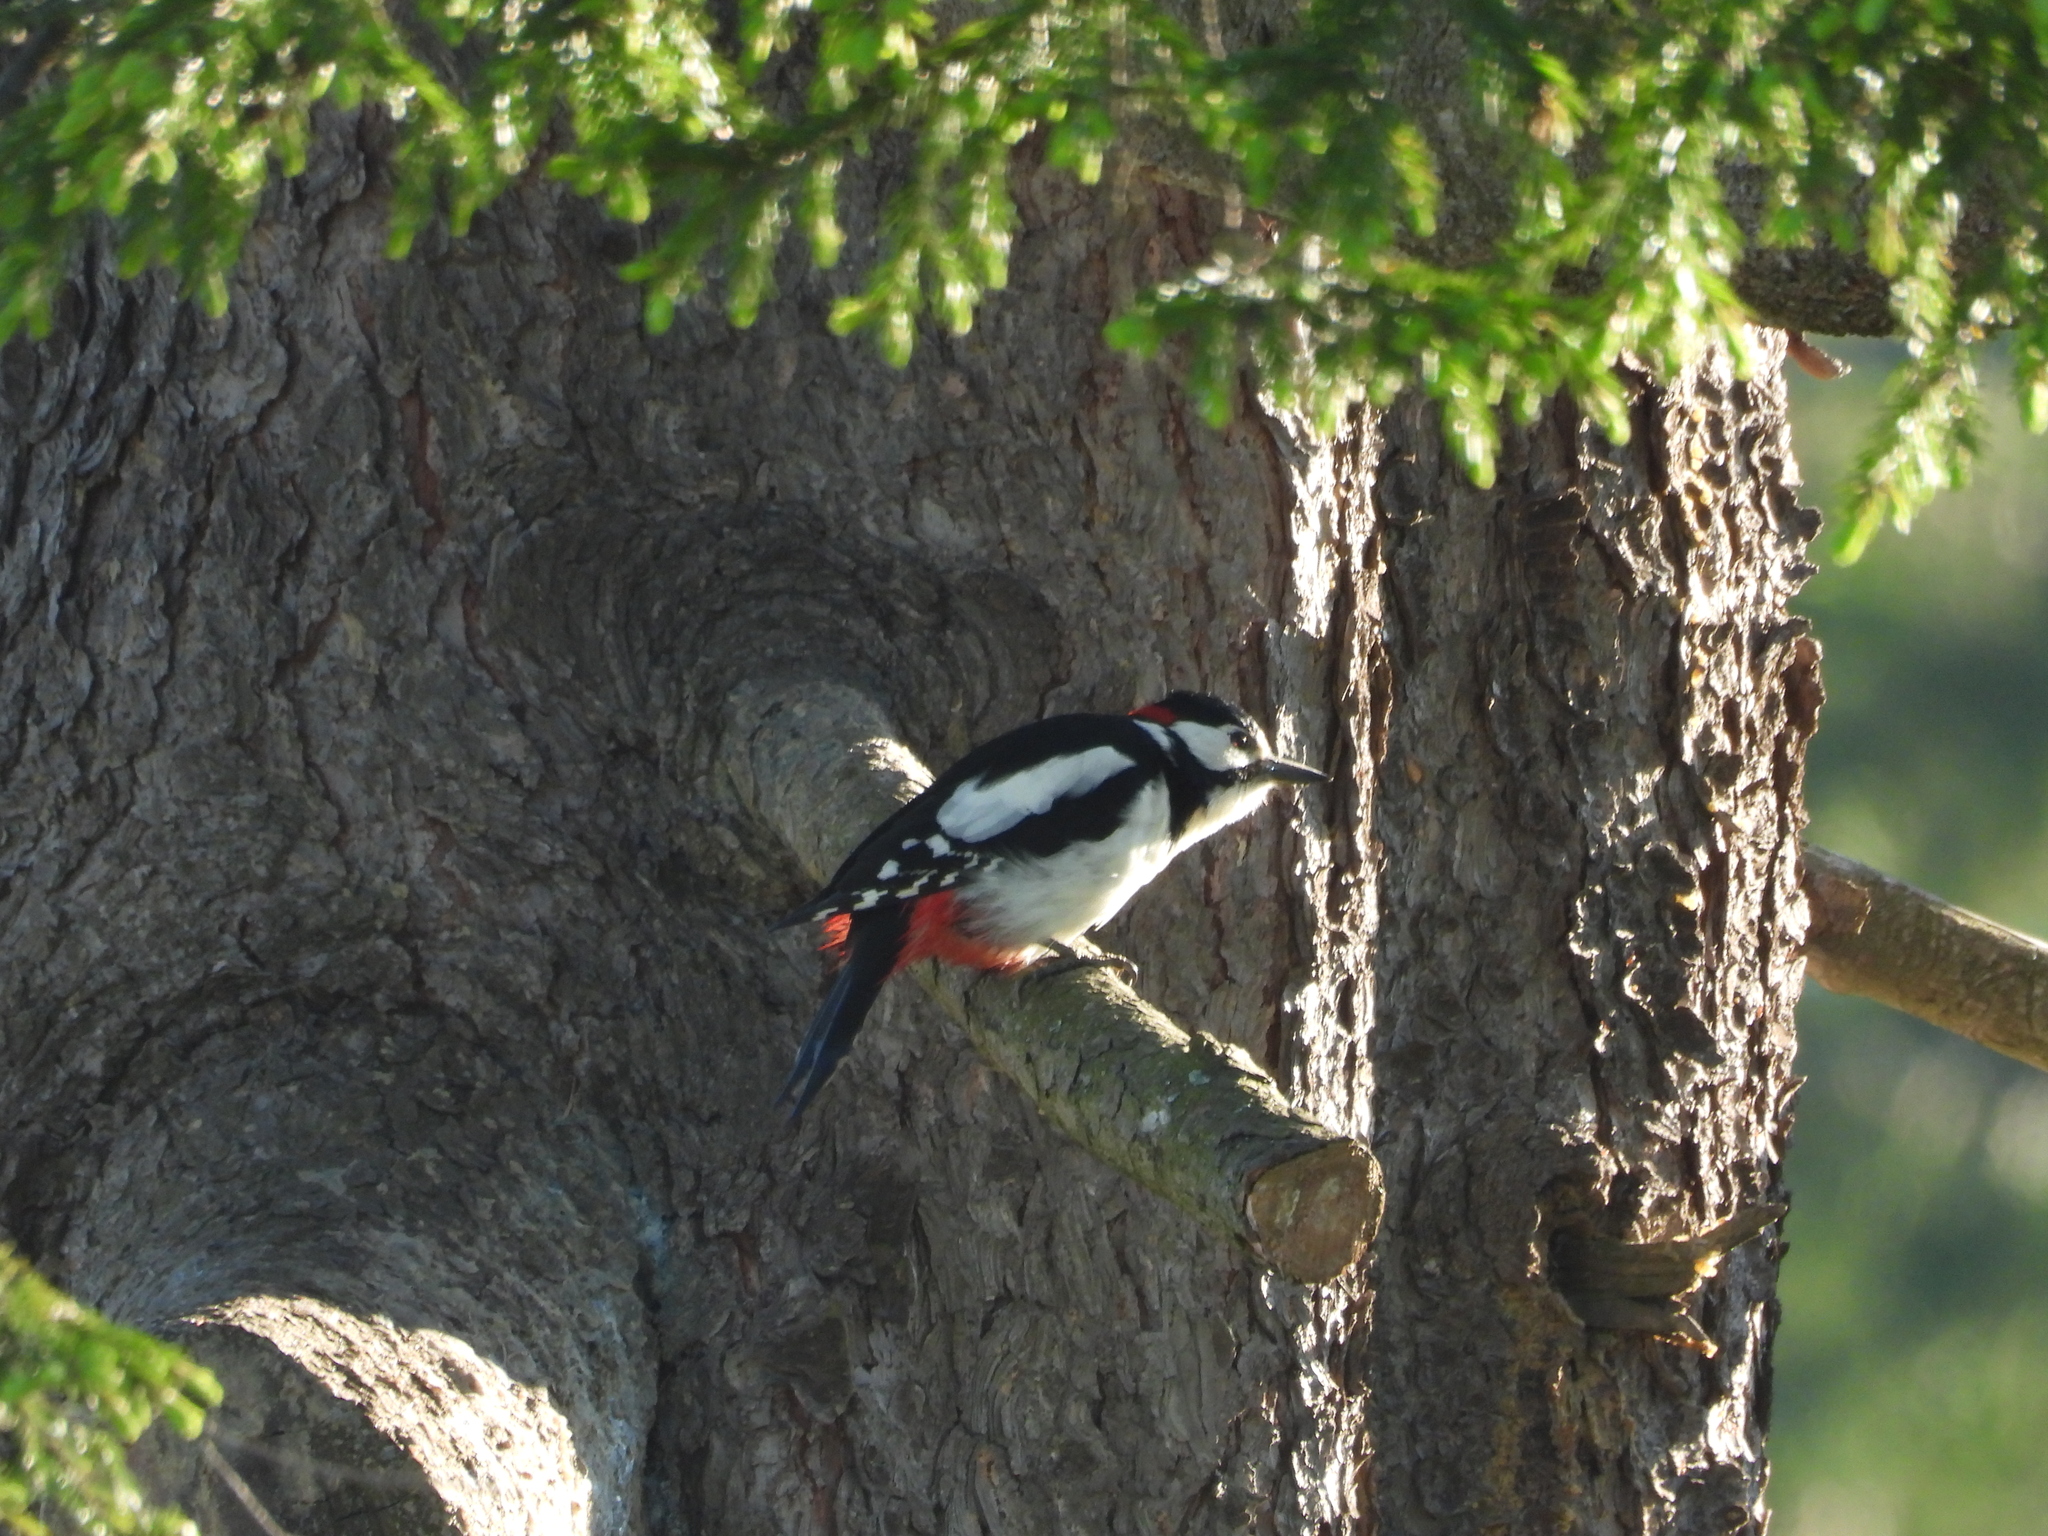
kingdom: Animalia
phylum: Chordata
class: Aves
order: Piciformes
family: Picidae
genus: Dendrocopos
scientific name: Dendrocopos major
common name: Great spotted woodpecker
